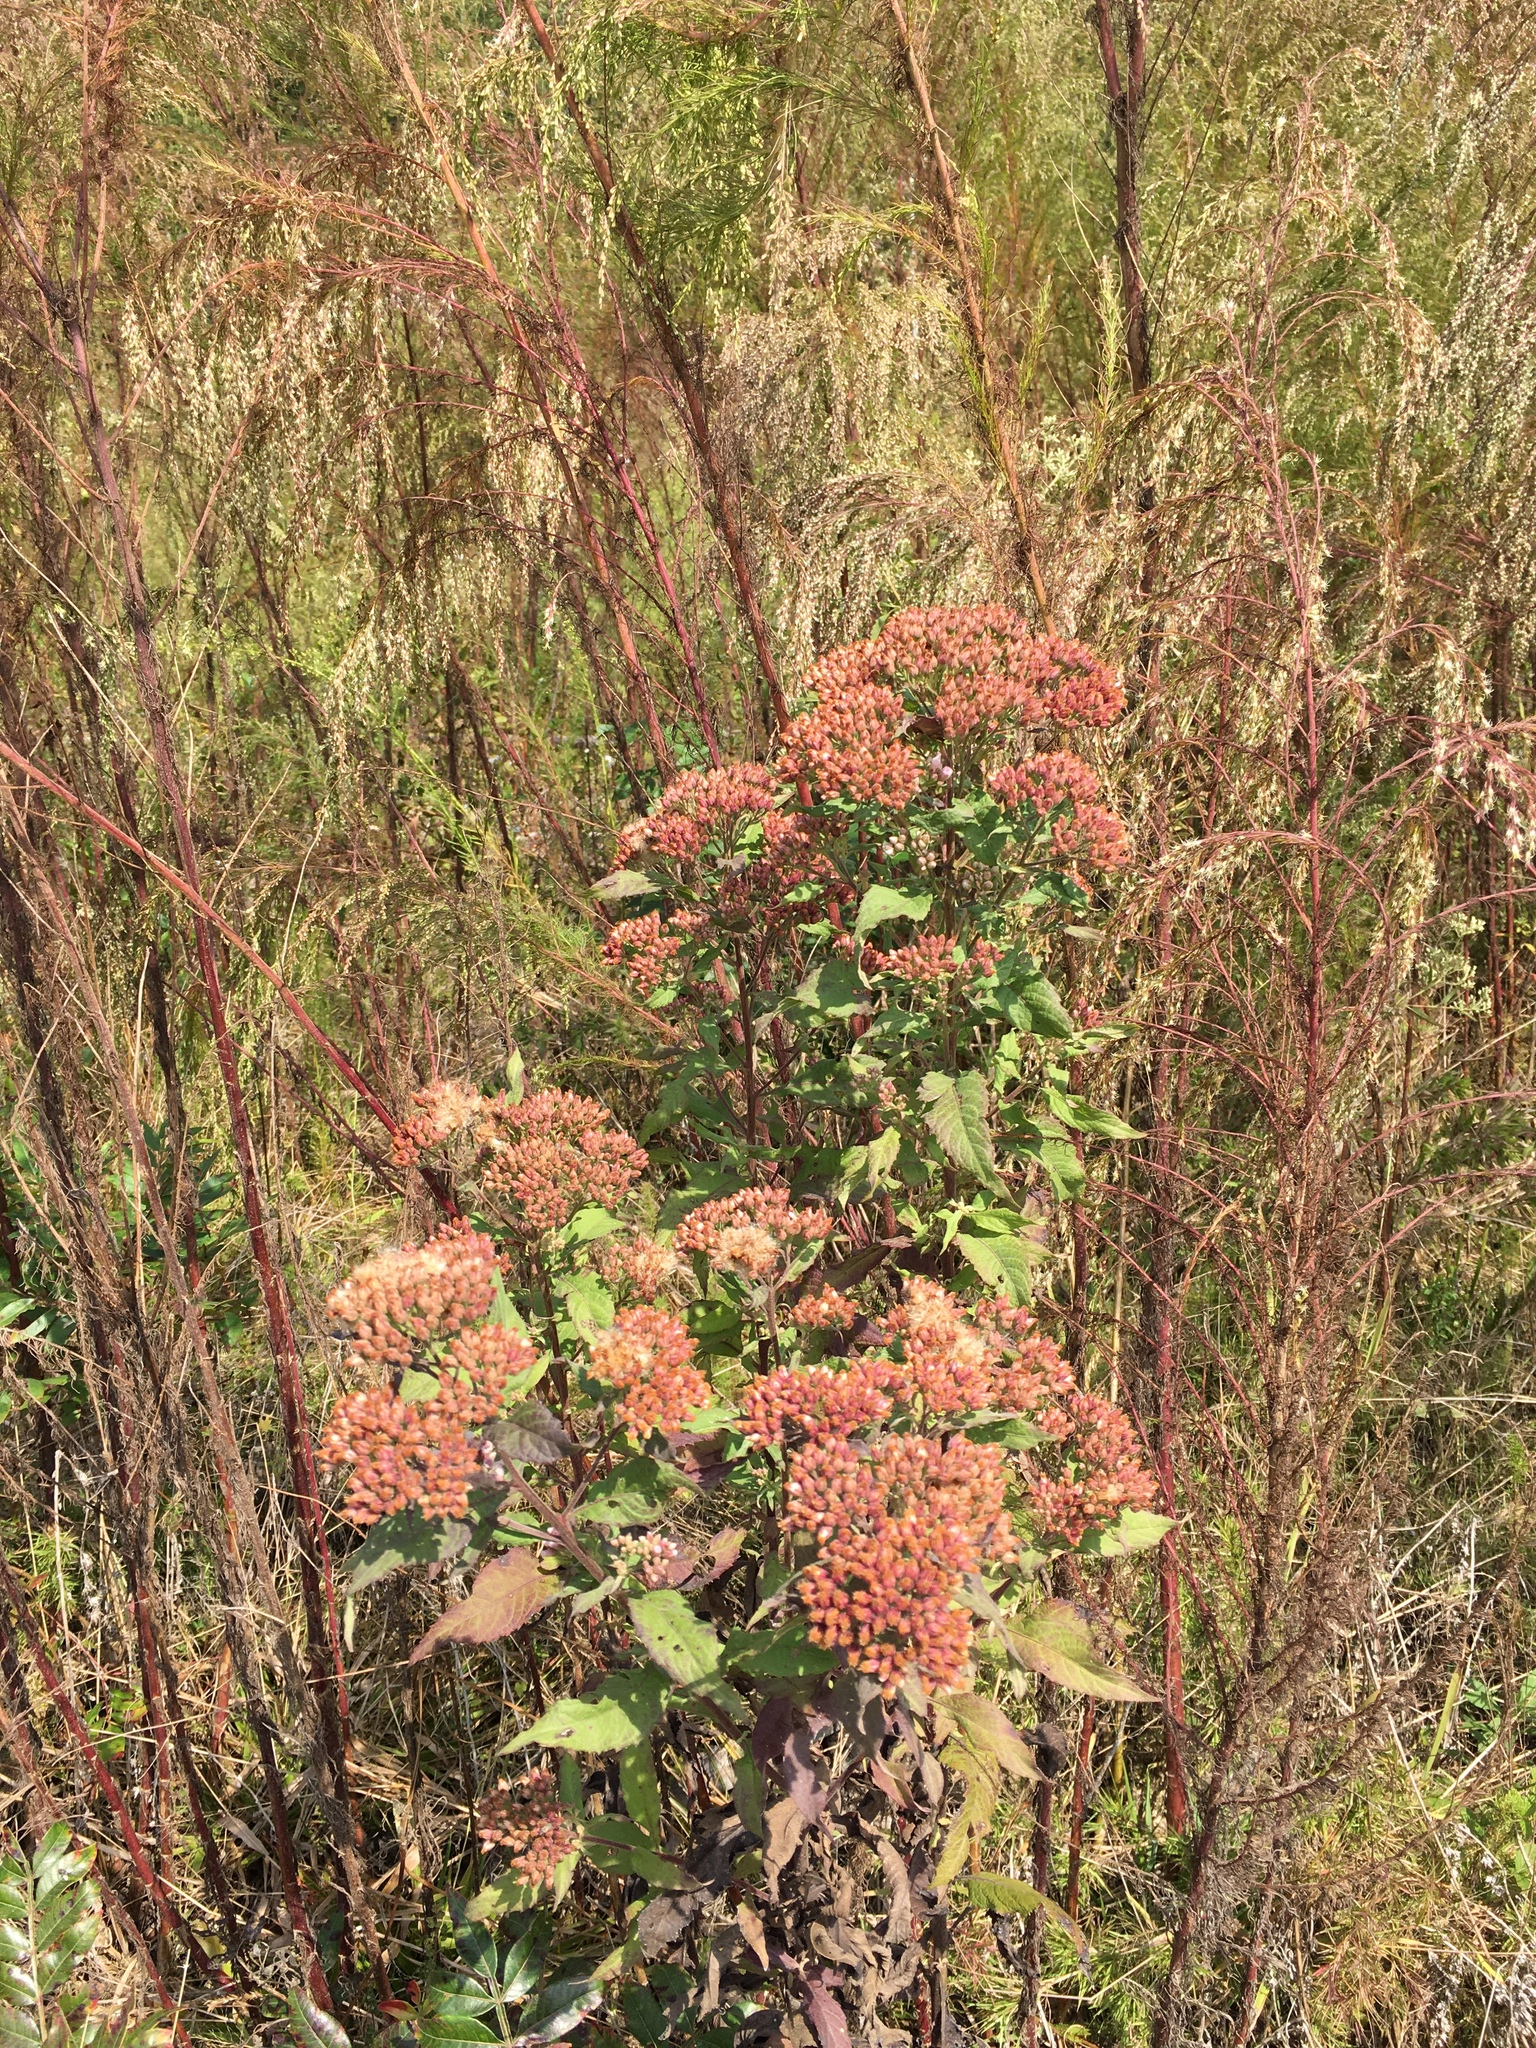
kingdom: Plantae
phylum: Tracheophyta
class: Magnoliopsida
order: Asterales
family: Asteraceae
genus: Pluchea
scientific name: Pluchea camphorata
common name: Camphor pluchea
